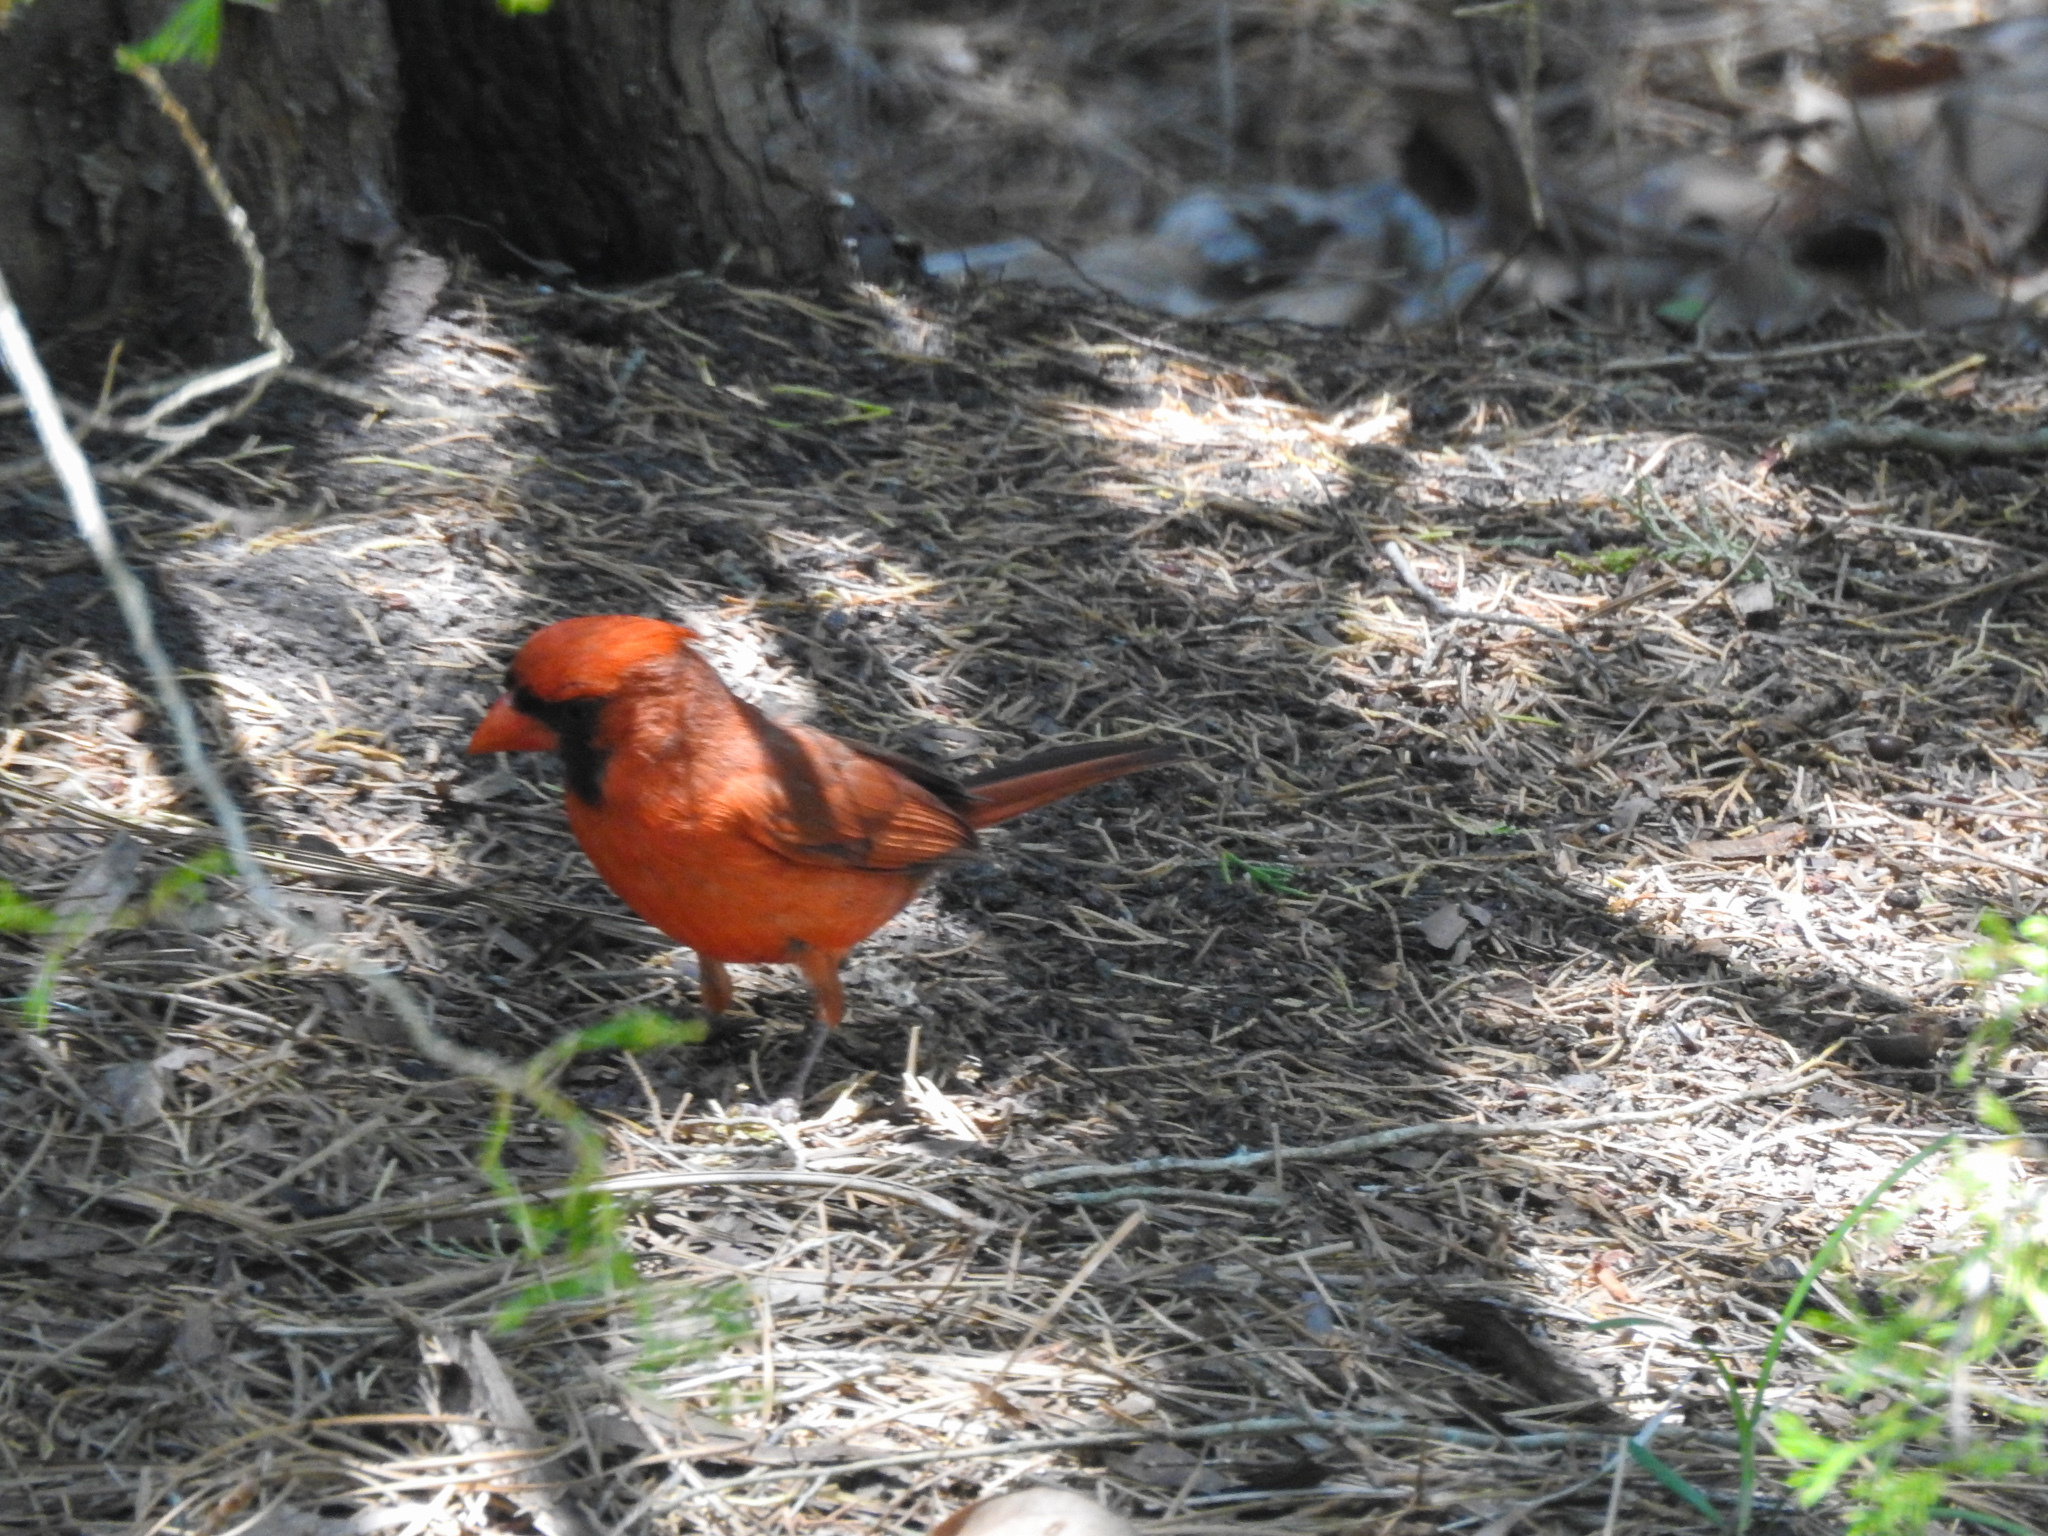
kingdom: Animalia
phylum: Chordata
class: Aves
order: Passeriformes
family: Cardinalidae
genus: Cardinalis
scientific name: Cardinalis cardinalis
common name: Northern cardinal
